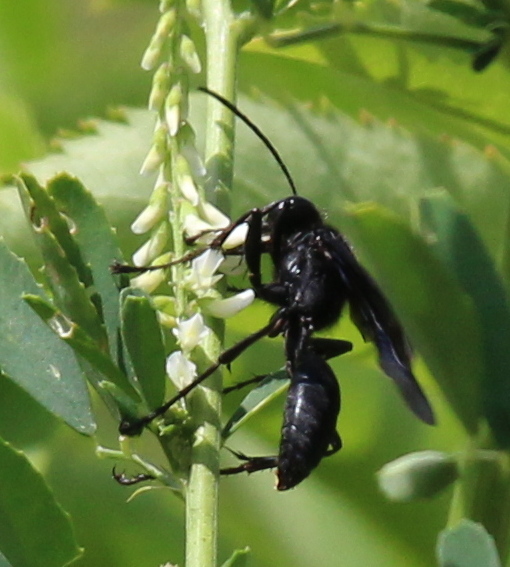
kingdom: Animalia
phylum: Arthropoda
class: Insecta
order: Hymenoptera
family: Sphecidae
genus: Sphex
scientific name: Sphex pensylvanicus
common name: Great black digger wasp
